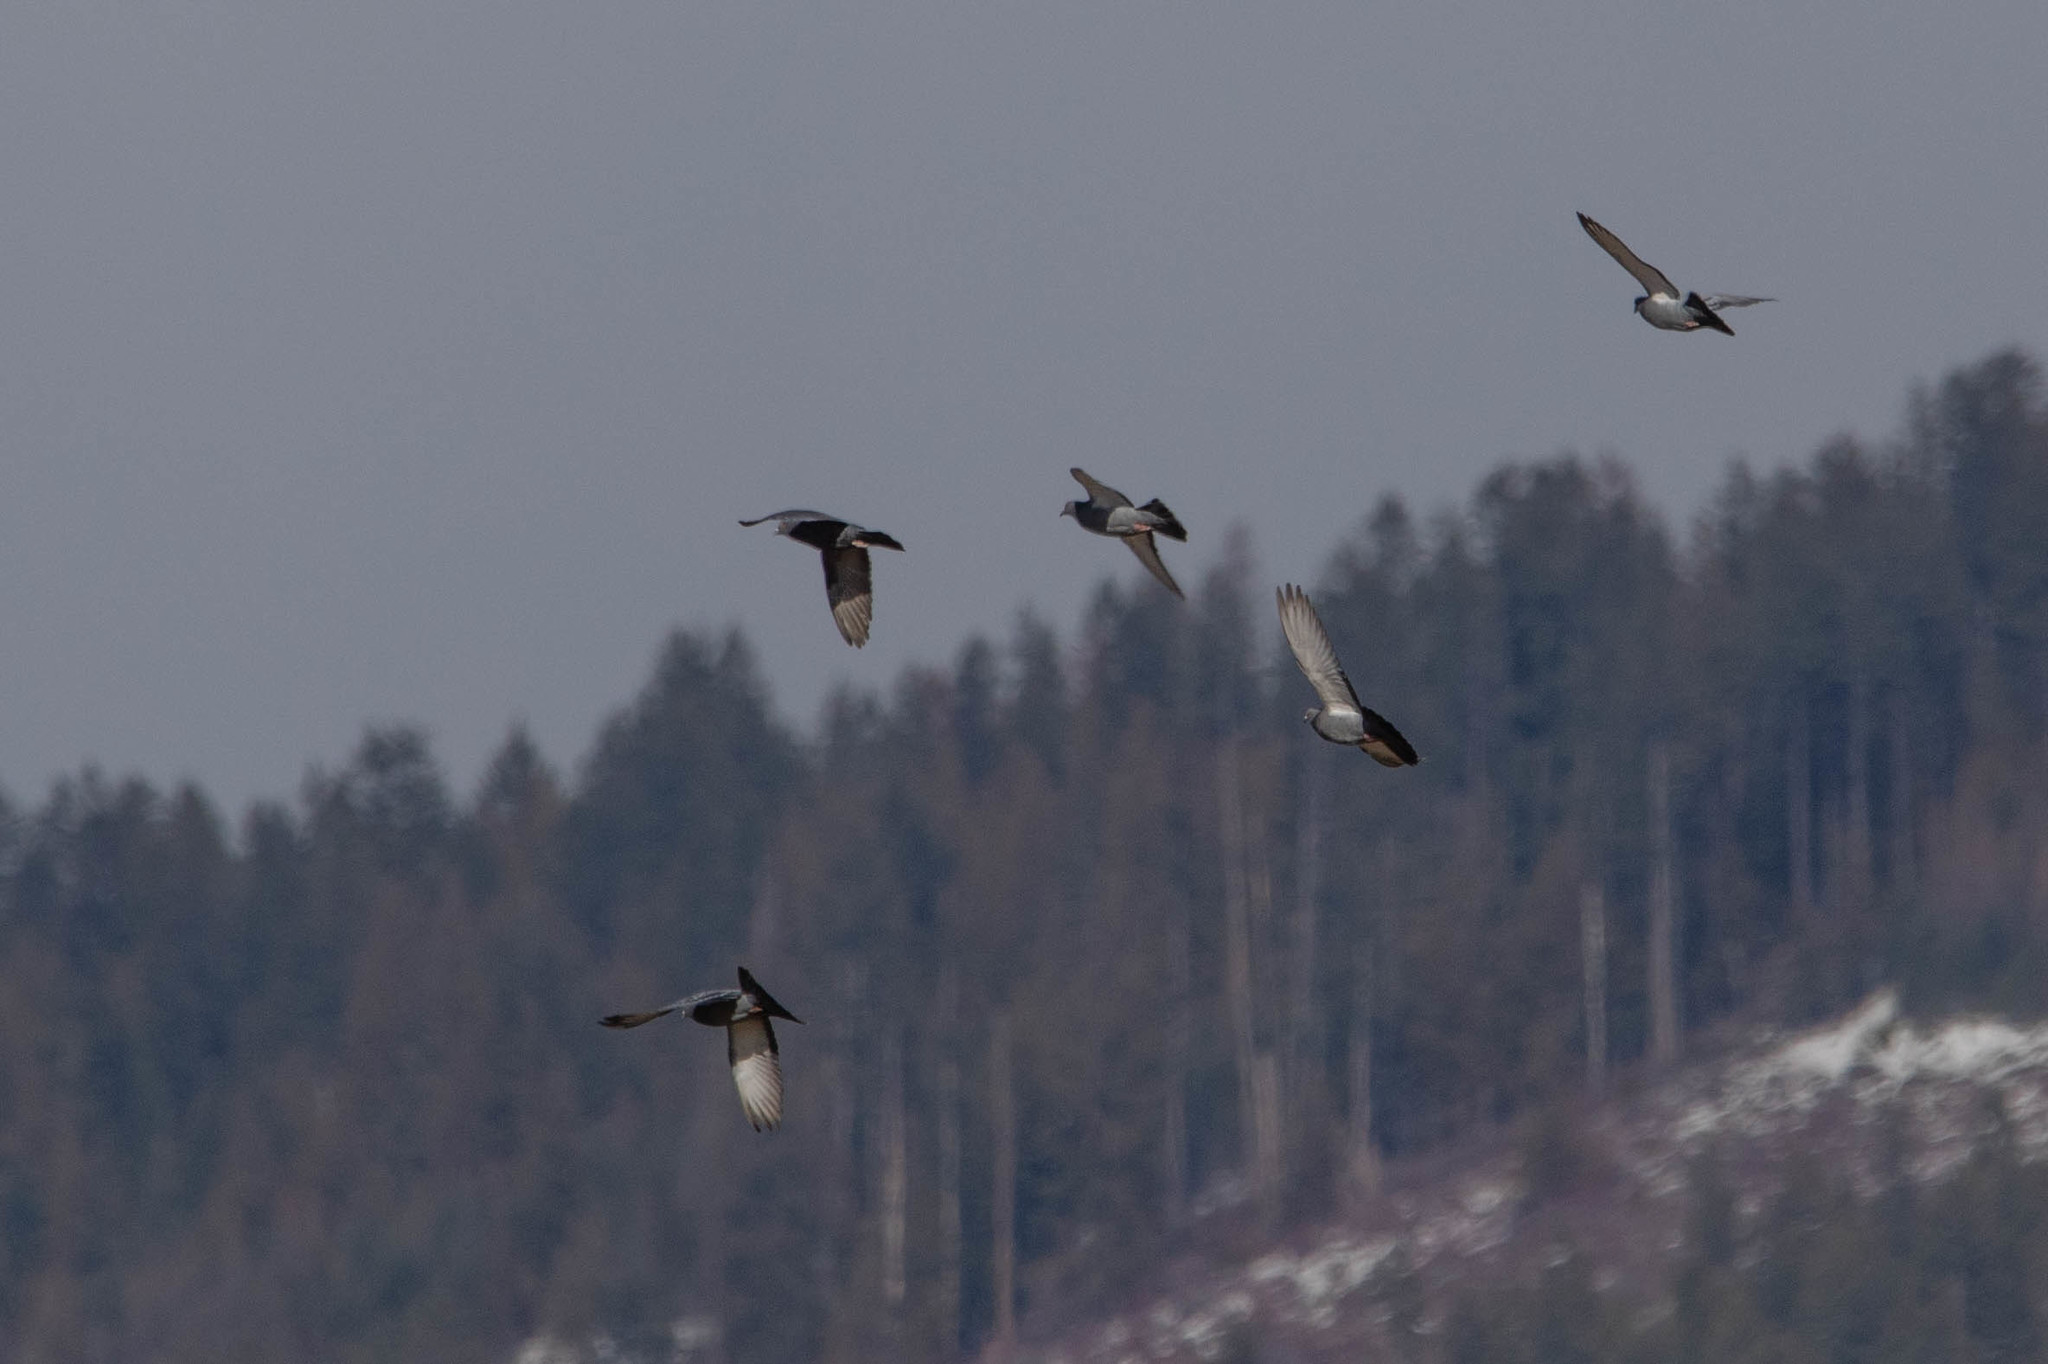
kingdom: Animalia
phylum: Chordata
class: Aves
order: Columbiformes
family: Columbidae
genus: Columba
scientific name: Columba livia
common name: Rock pigeon
